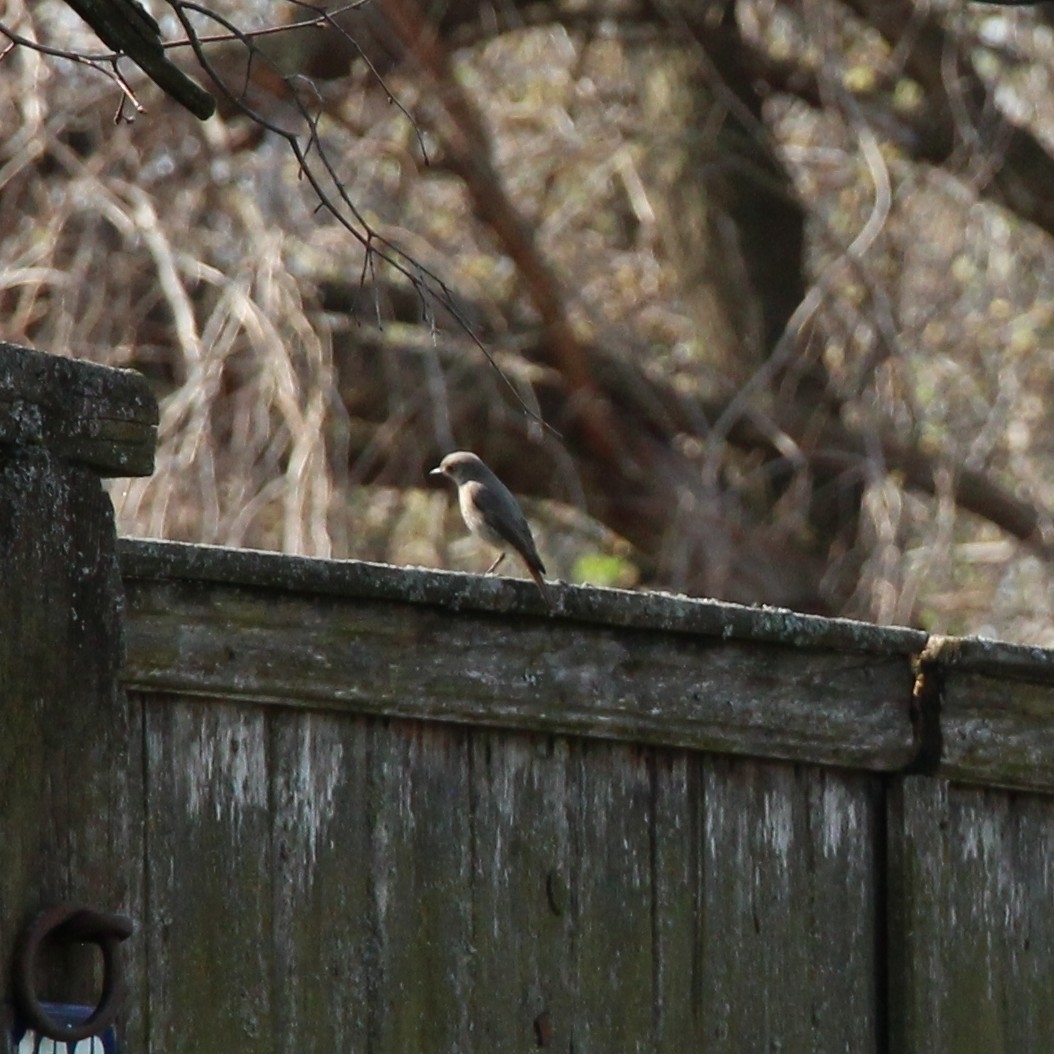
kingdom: Animalia
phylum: Chordata
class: Aves
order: Passeriformes
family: Muscicapidae
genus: Phoenicurus
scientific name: Phoenicurus phoenicurus
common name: Common redstart
